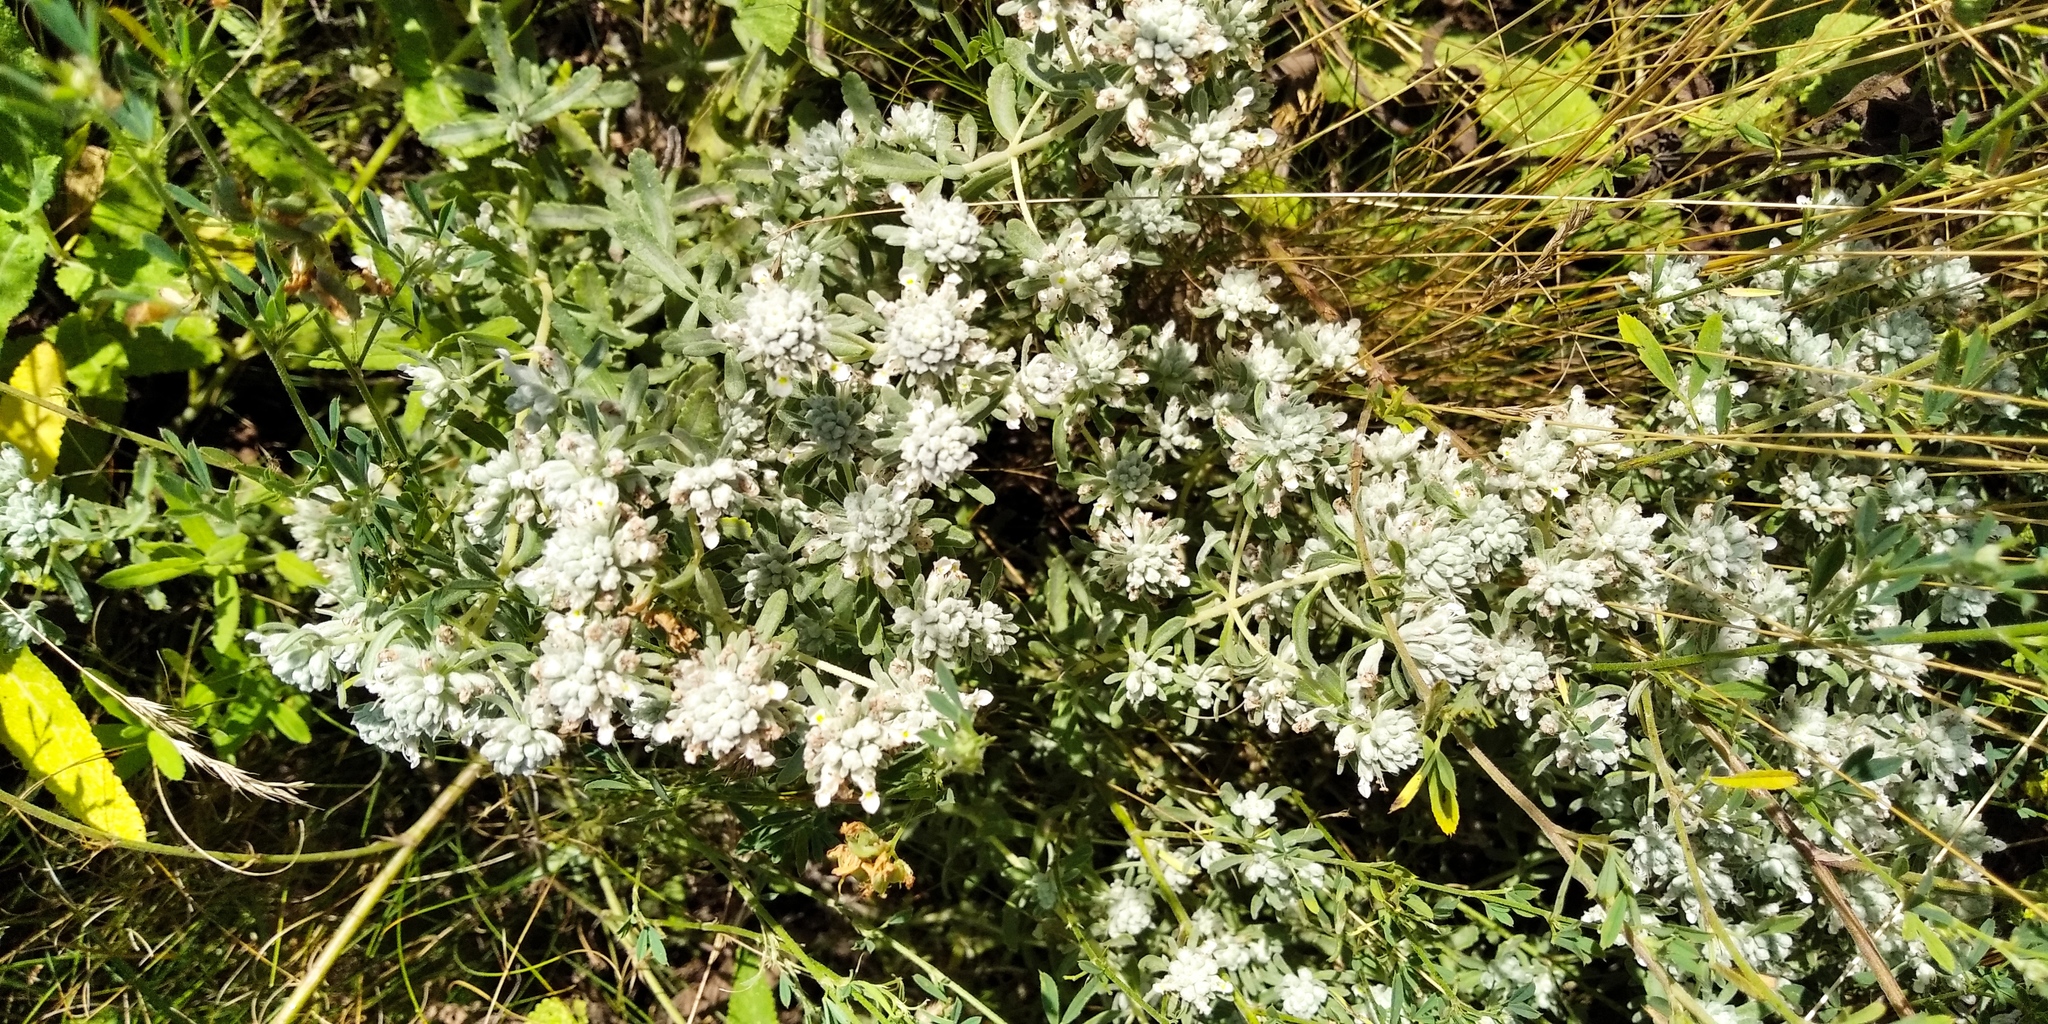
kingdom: Plantae
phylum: Tracheophyta
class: Magnoliopsida
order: Lamiales
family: Lamiaceae
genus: Teucrium
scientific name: Teucrium polium
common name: Poley
